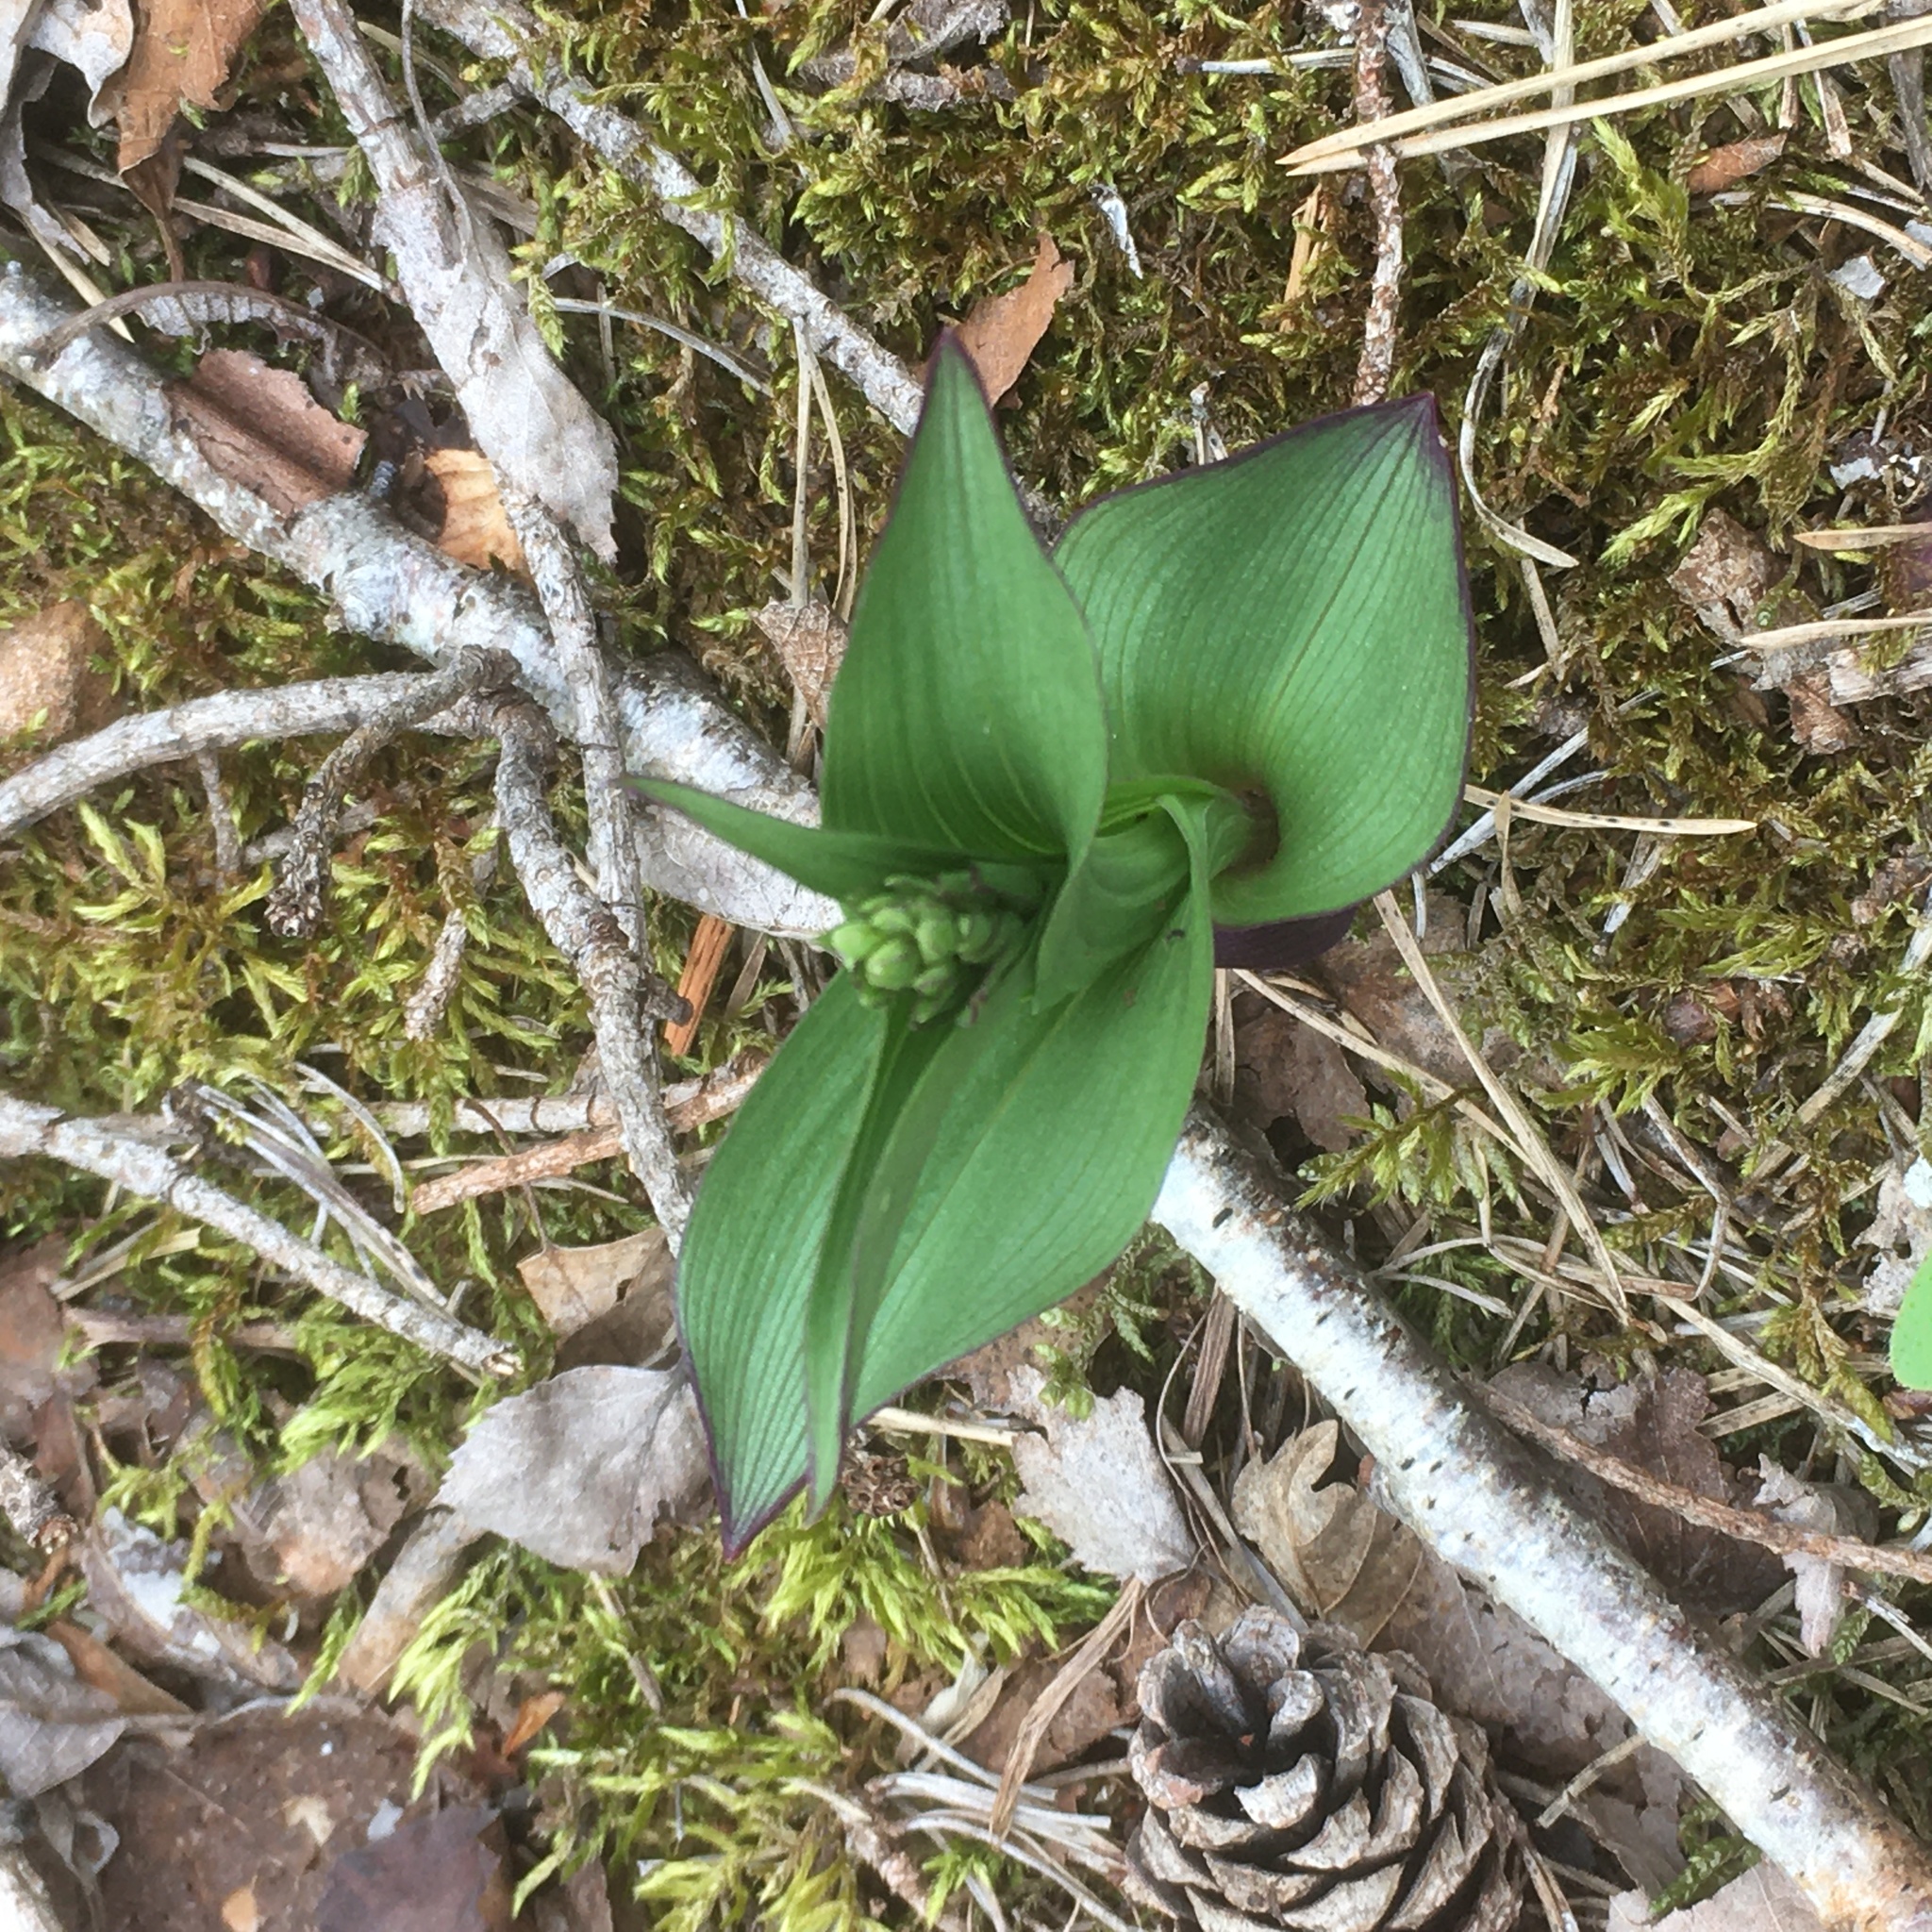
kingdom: Plantae
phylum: Tracheophyta
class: Liliopsida
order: Asparagales
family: Orchidaceae
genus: Epipactis
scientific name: Epipactis atrorubens
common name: Dark-red helleborine
